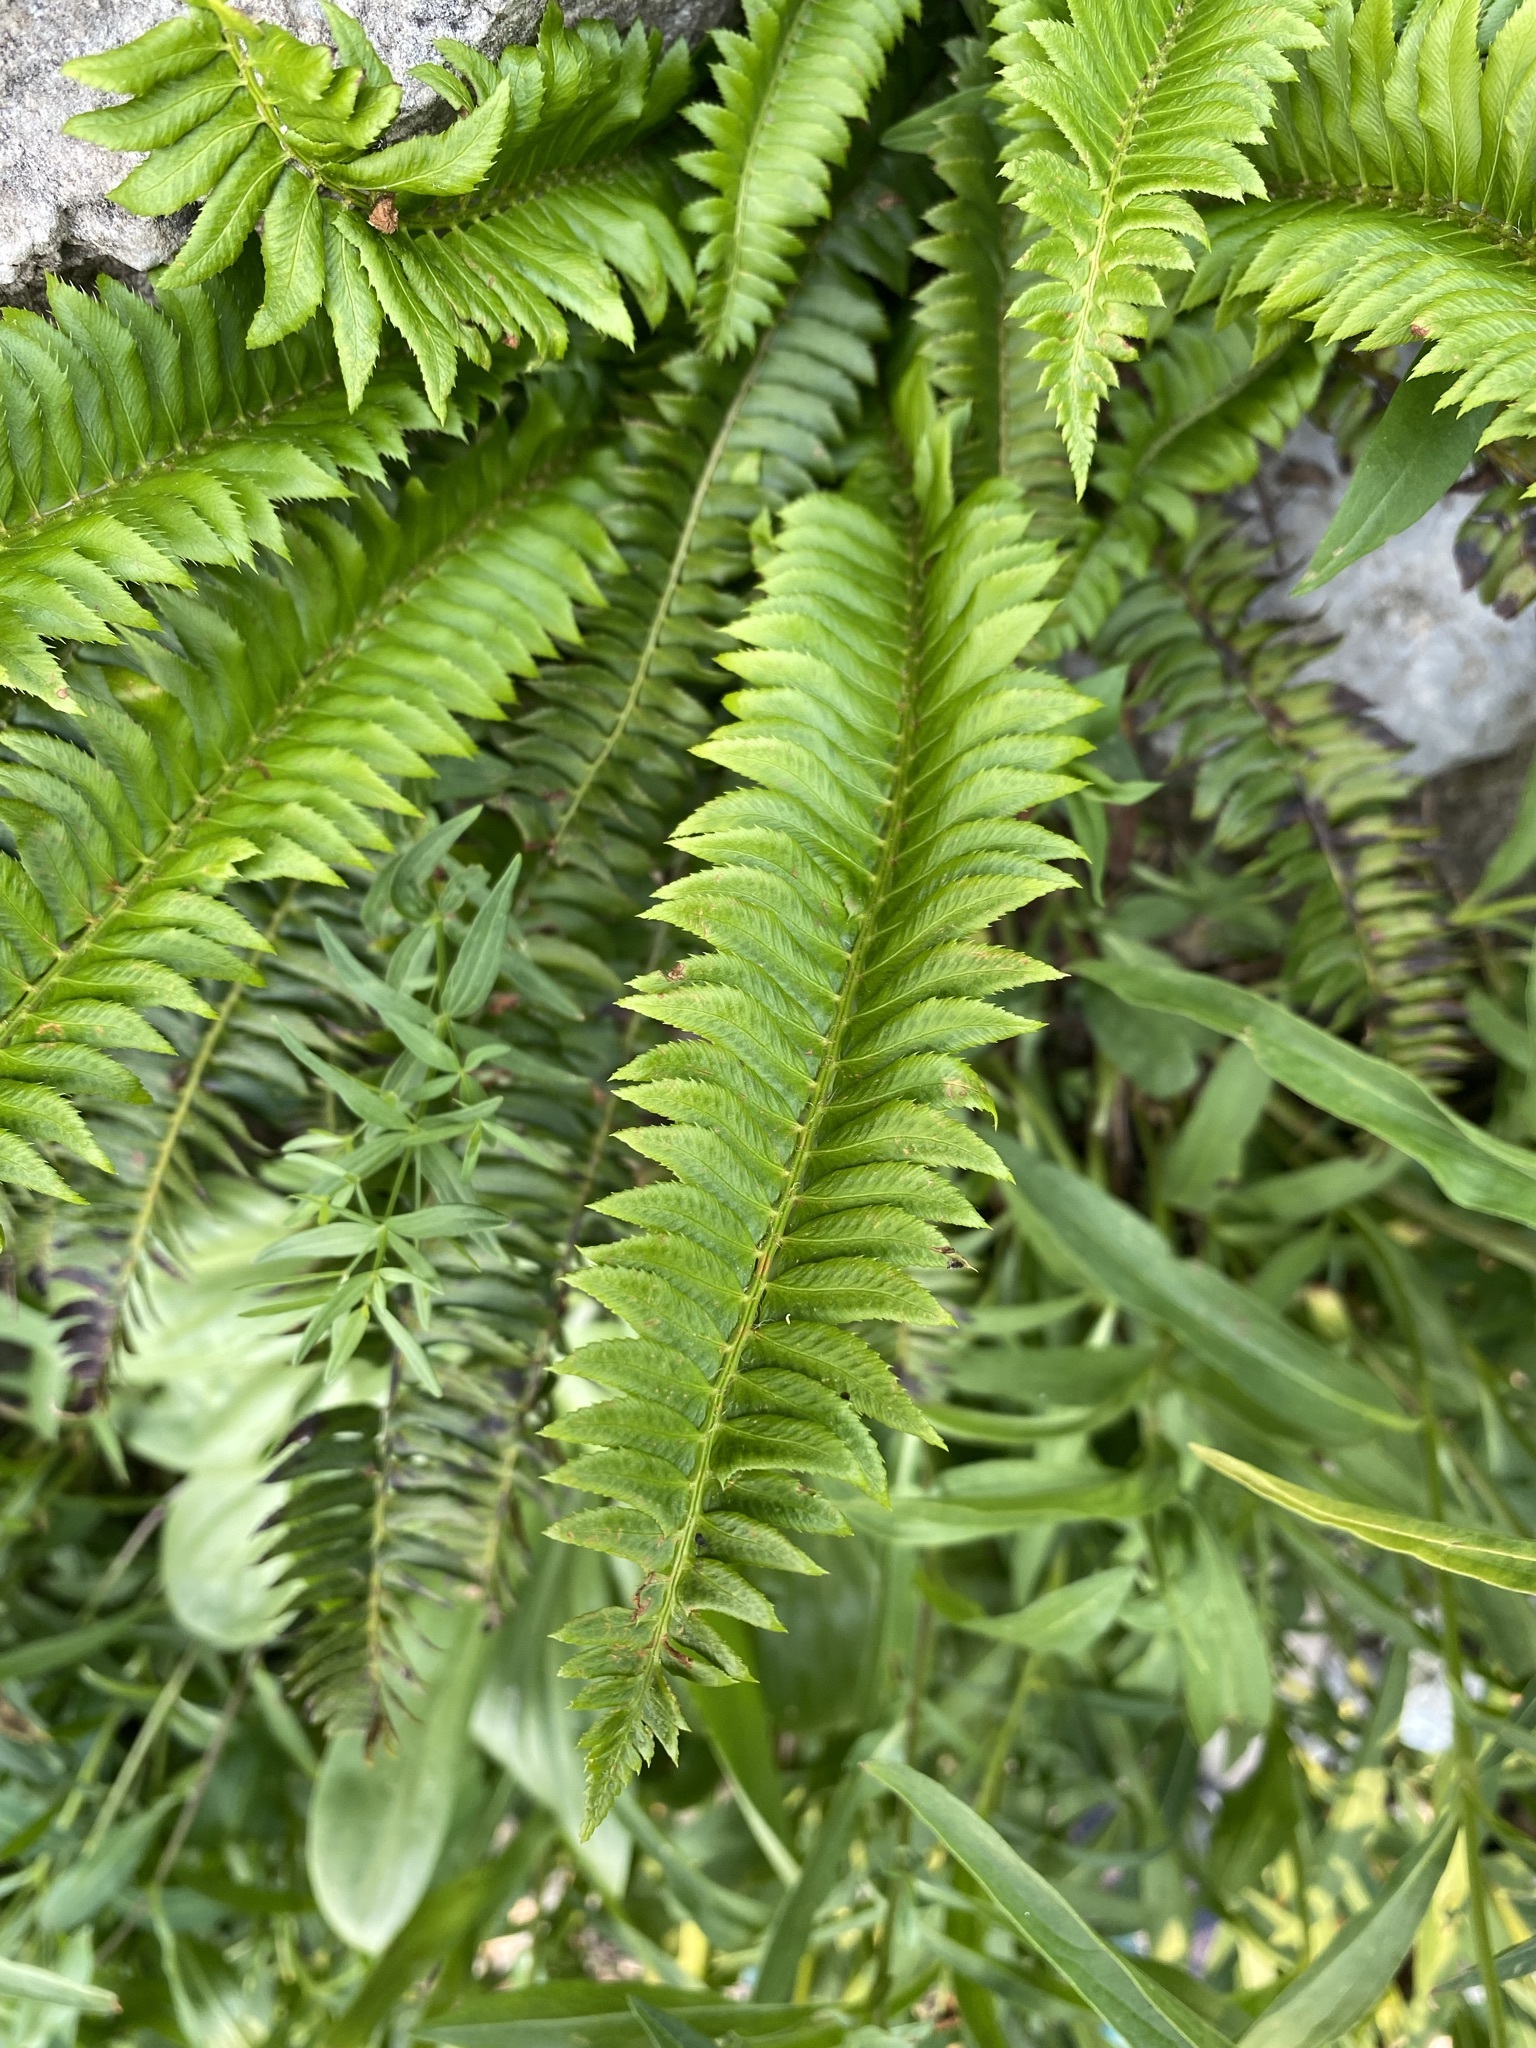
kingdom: Plantae
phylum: Tracheophyta
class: Polypodiopsida
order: Polypodiales
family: Dryopteridaceae
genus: Polystichum
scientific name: Polystichum lonchitis
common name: Holly fern
